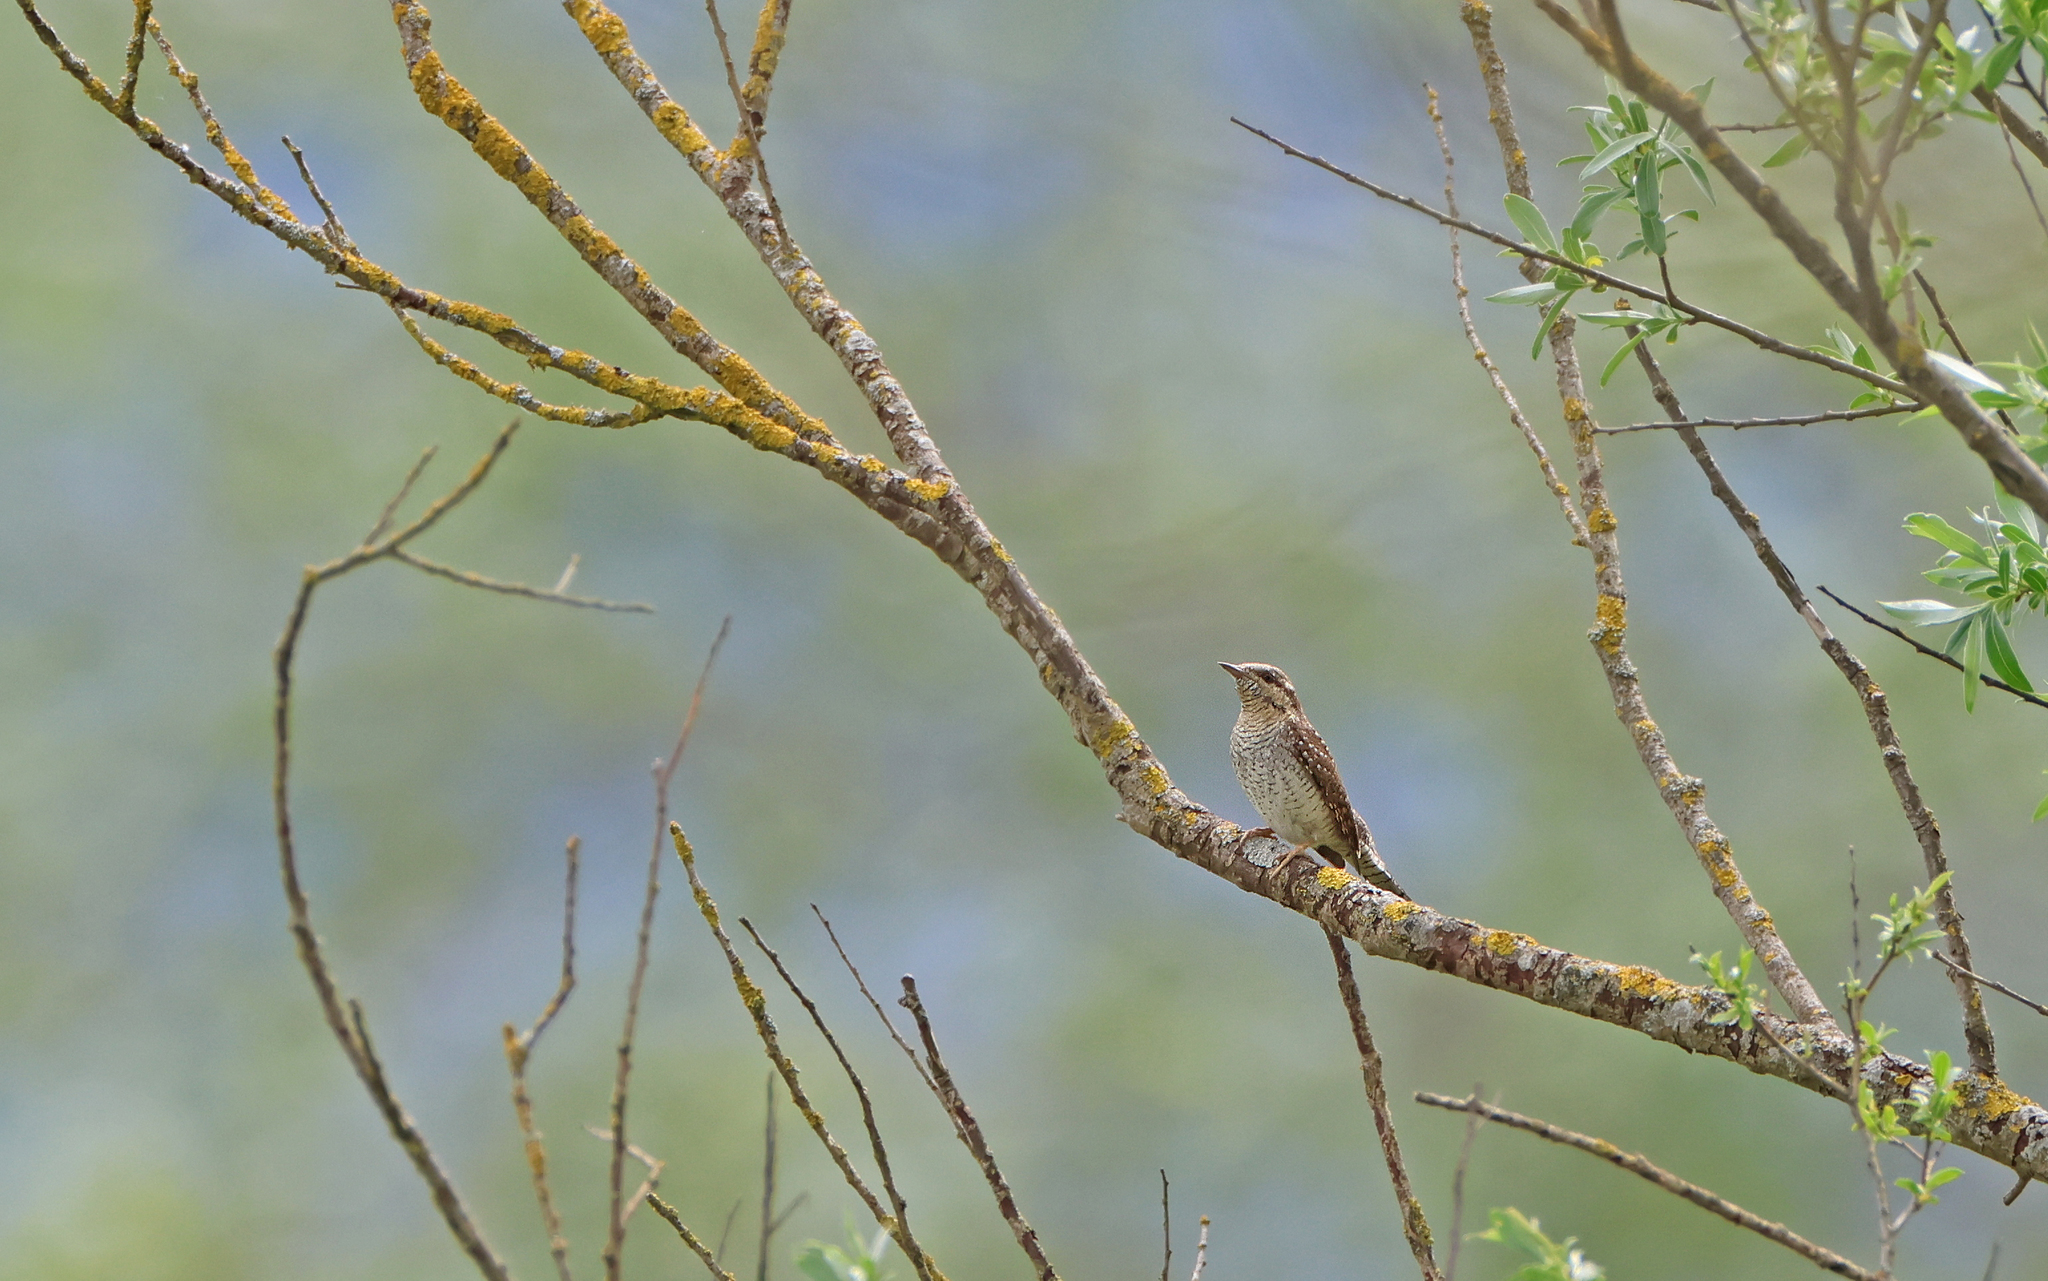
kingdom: Animalia
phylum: Chordata
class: Aves
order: Piciformes
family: Picidae
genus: Jynx
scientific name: Jynx torquilla
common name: Eurasian wryneck
